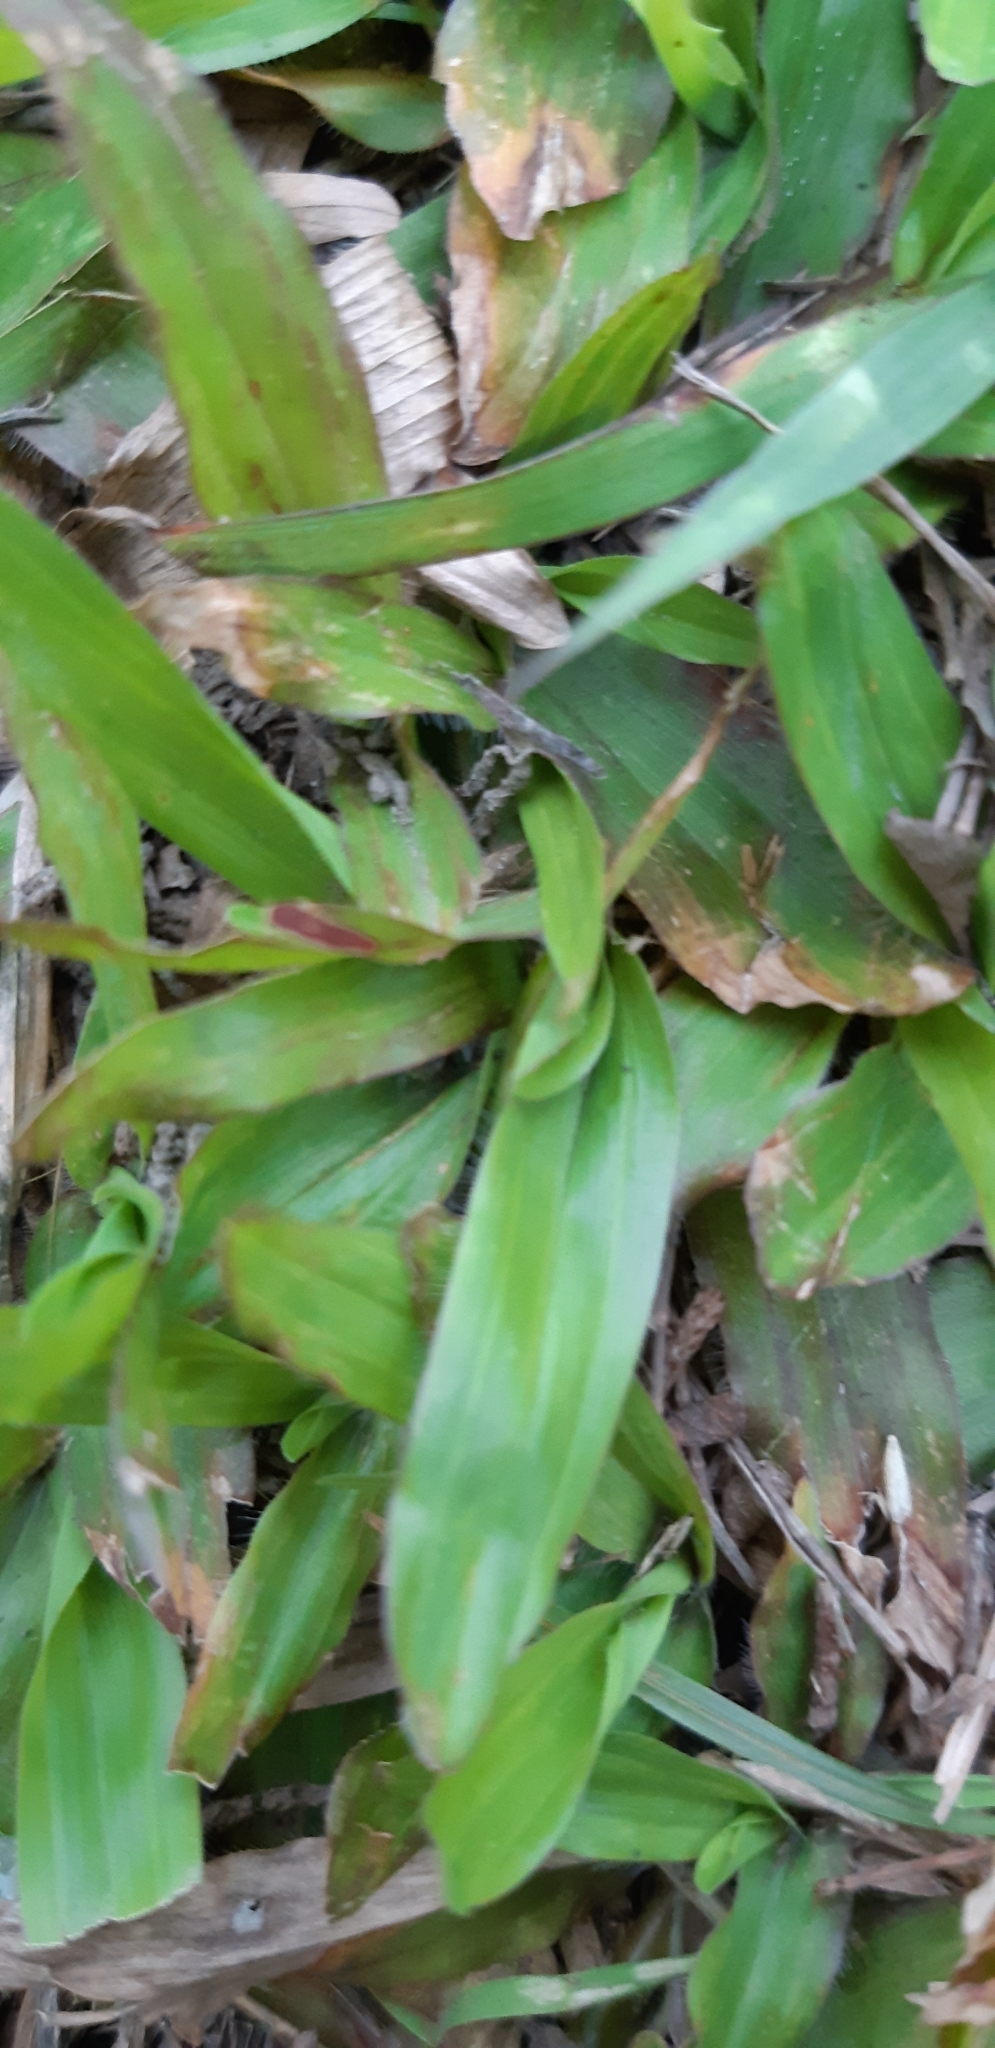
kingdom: Plantae
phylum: Tracheophyta
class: Liliopsida
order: Poales
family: Poaceae
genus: Axonopus
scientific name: Axonopus compressus
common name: American carpet grass
